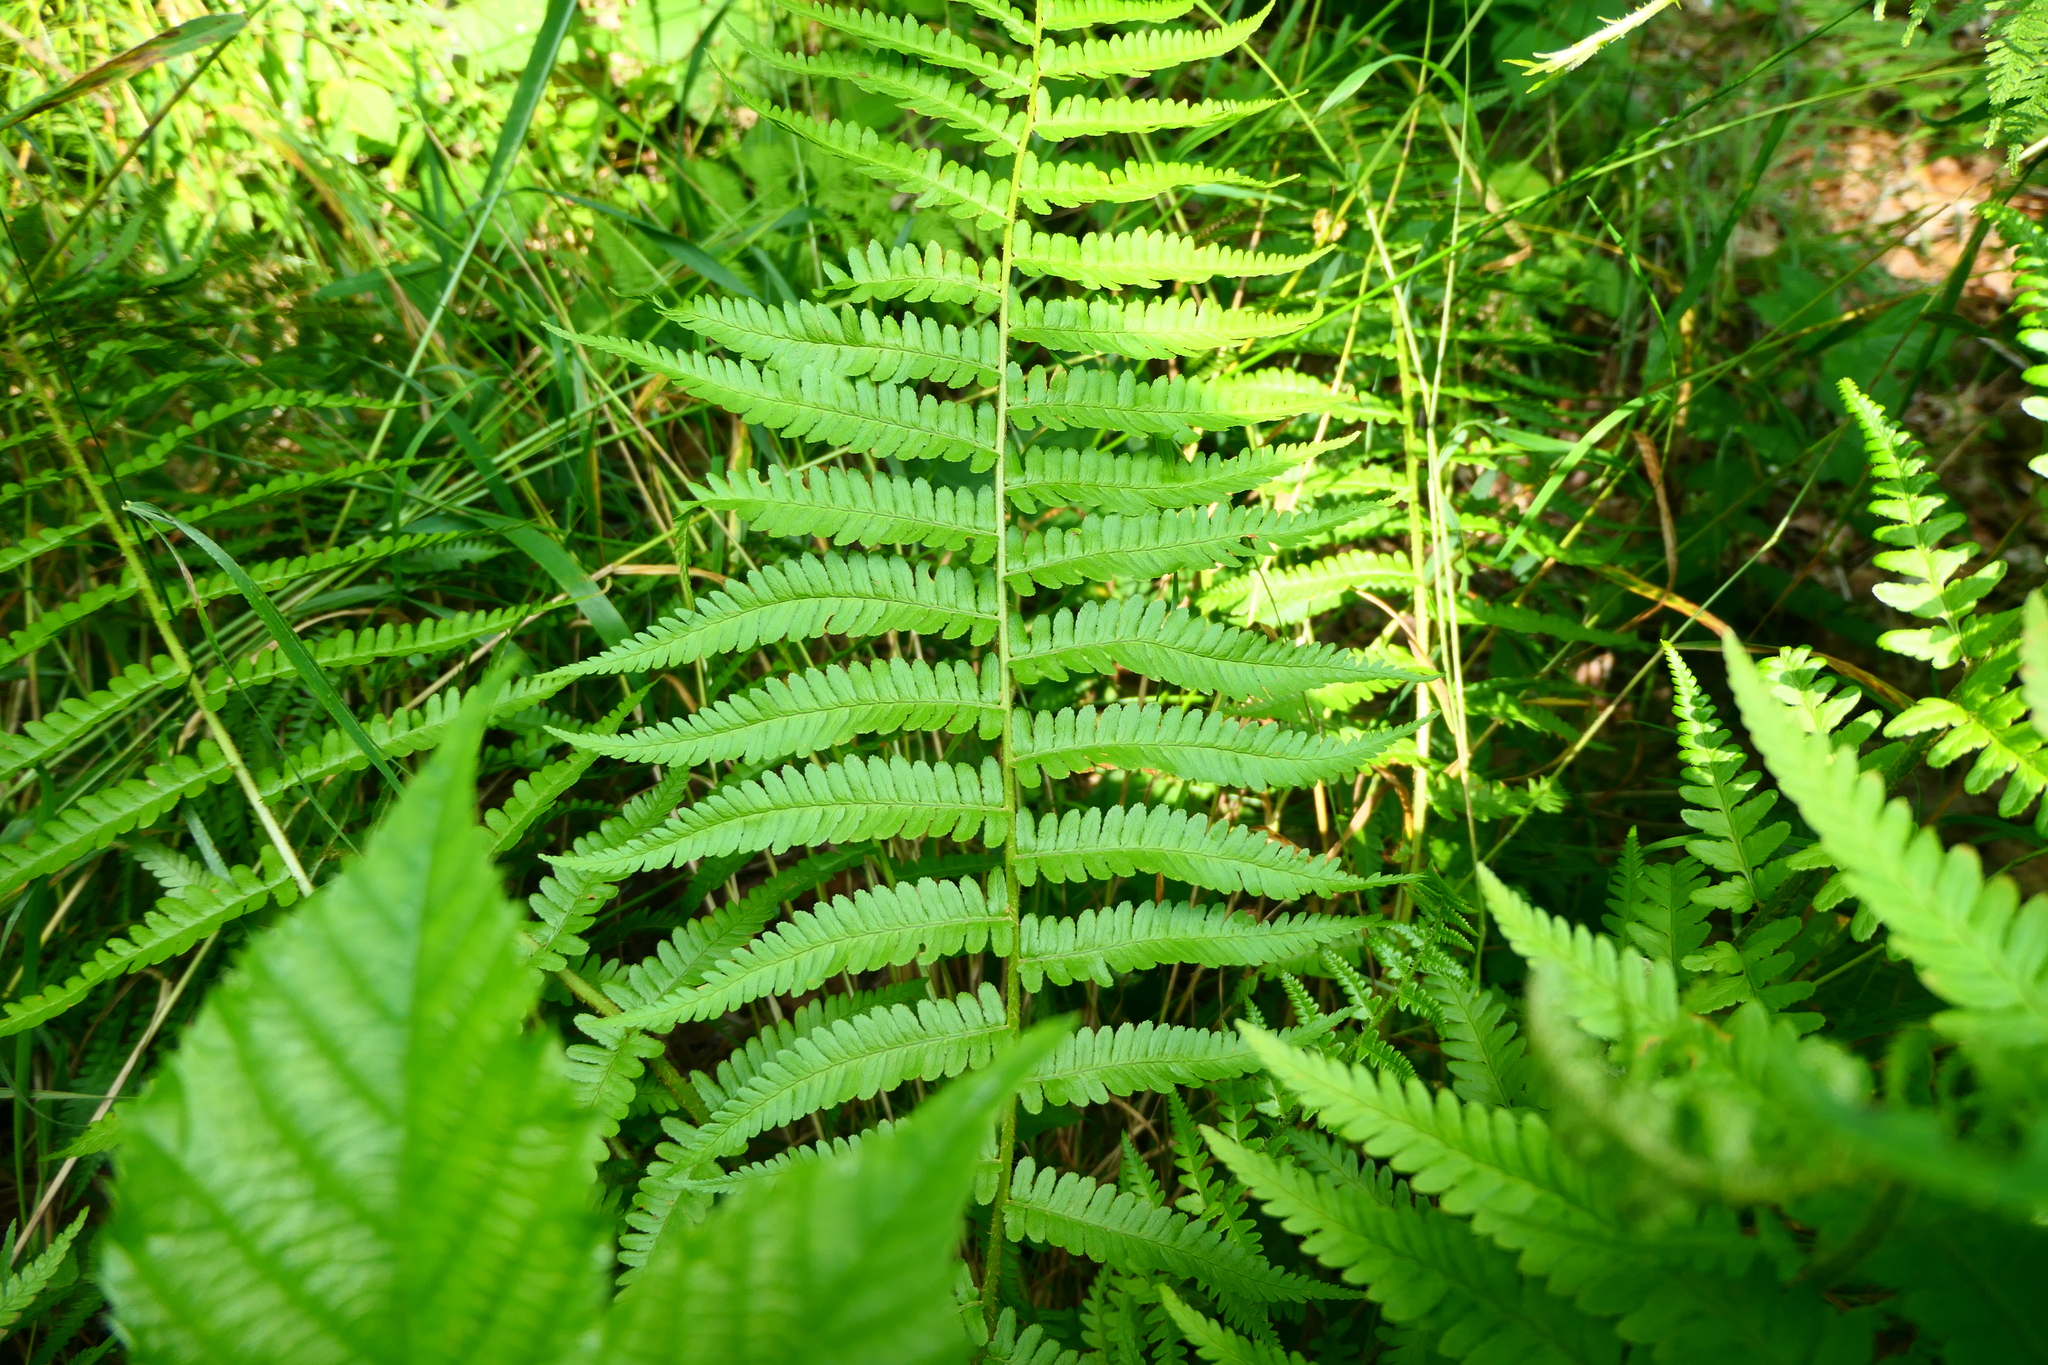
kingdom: Plantae
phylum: Tracheophyta
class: Polypodiopsida
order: Polypodiales
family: Dryopteridaceae
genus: Dryopteris
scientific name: Dryopteris filix-mas
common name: Male fern
